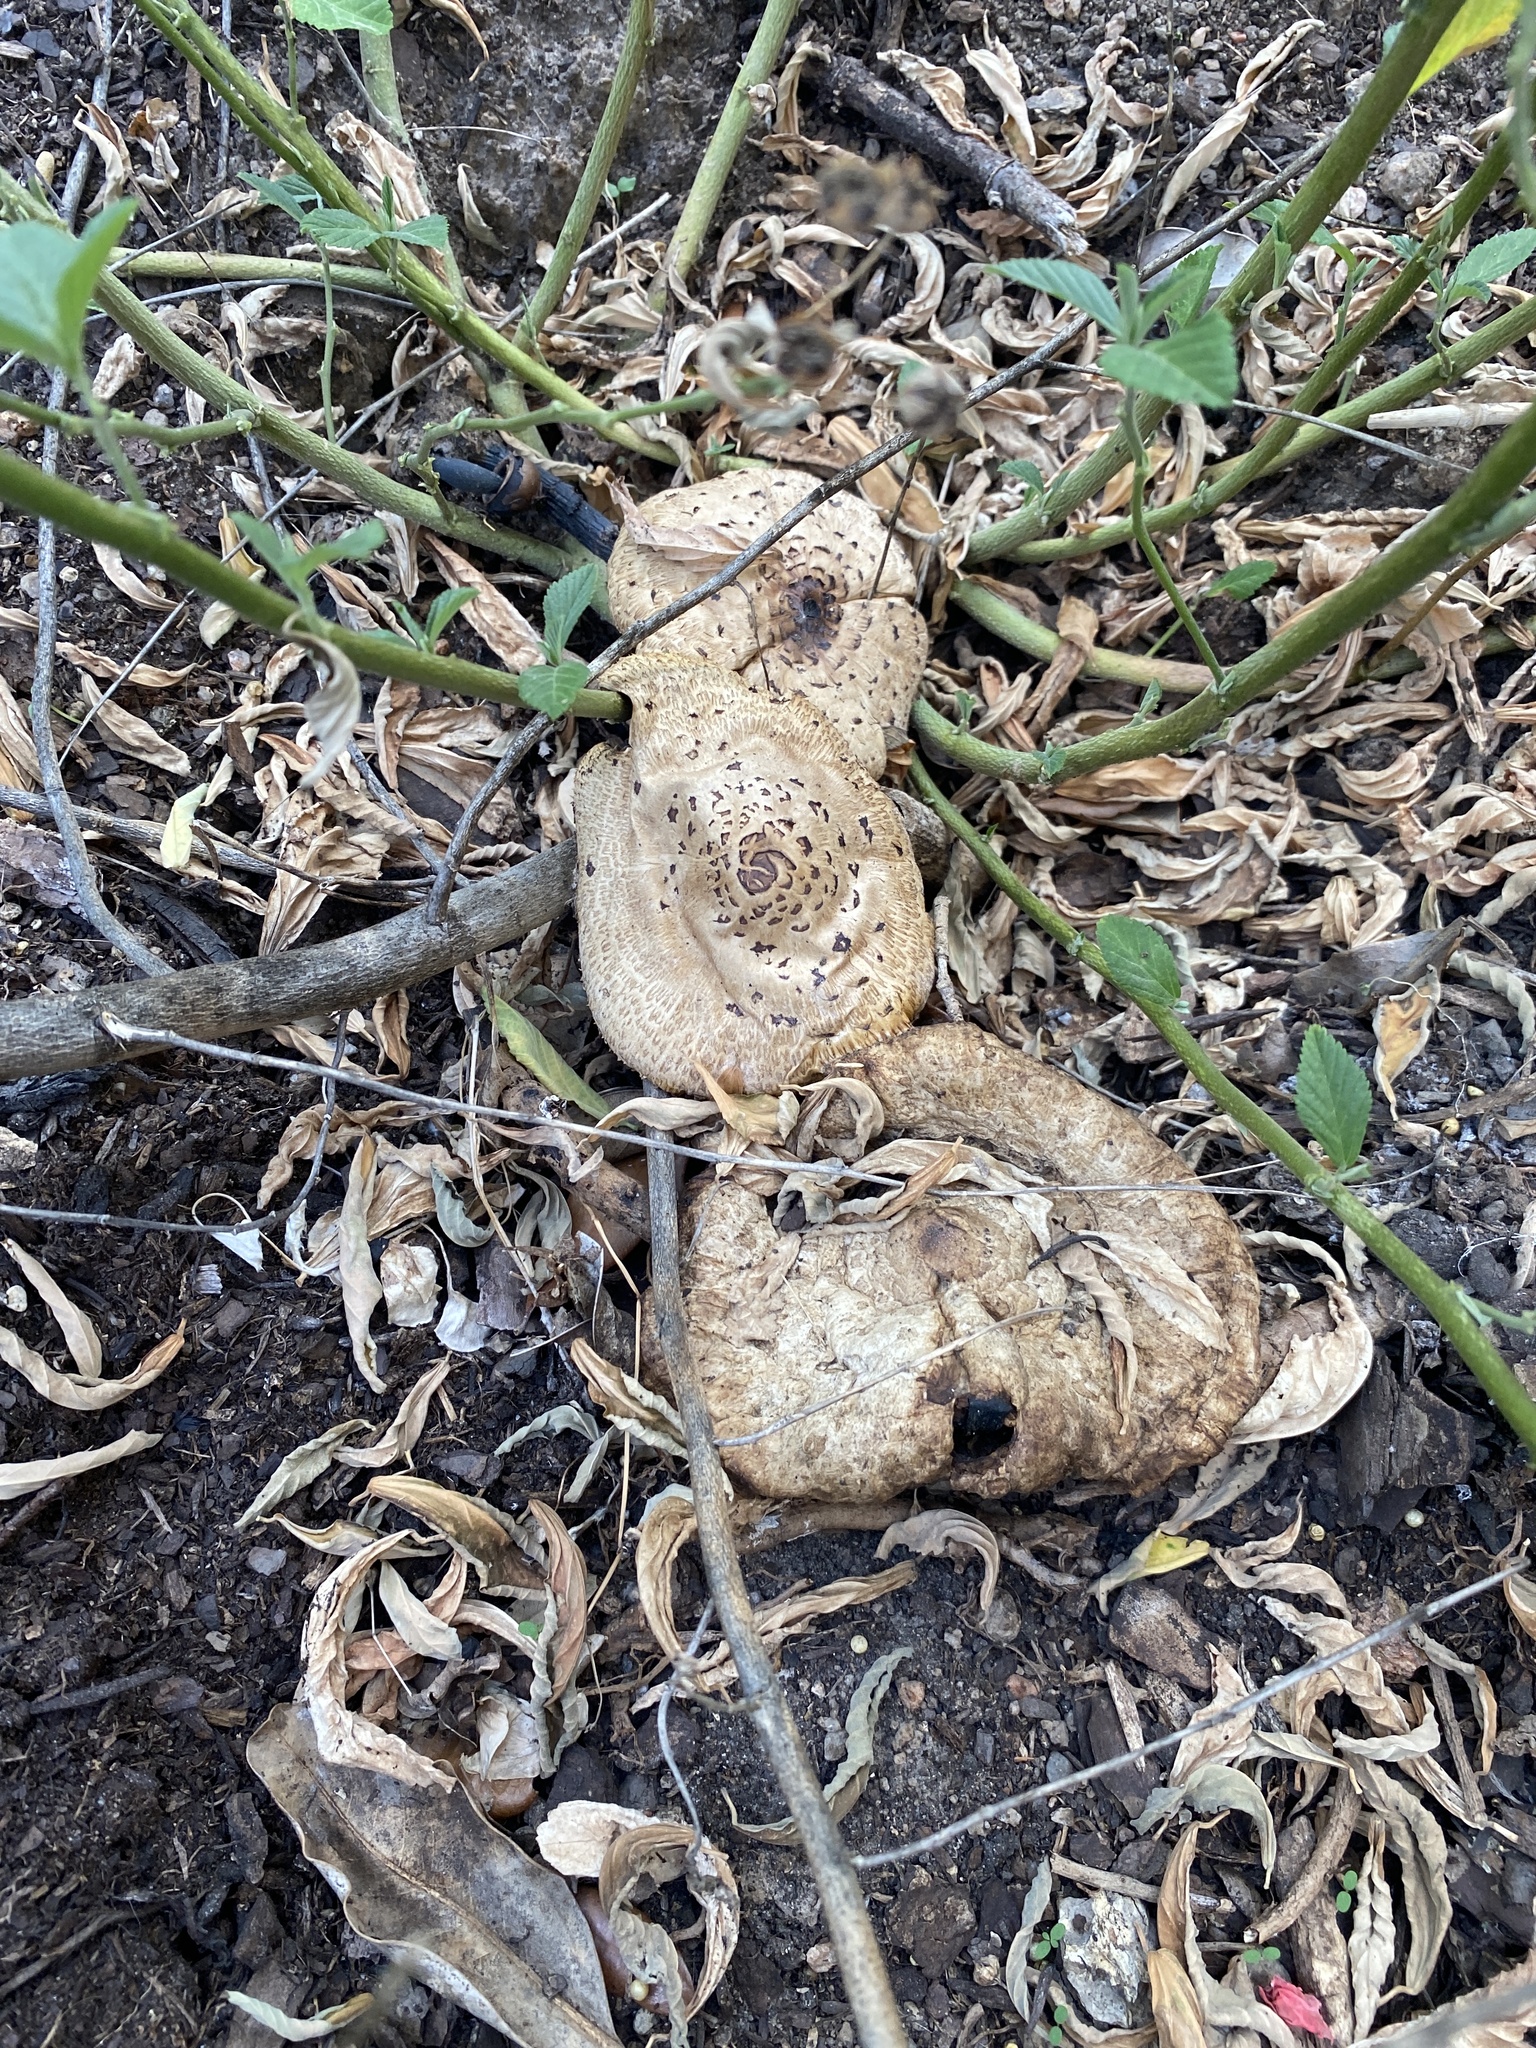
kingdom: Fungi
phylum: Basidiomycota
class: Agaricomycetes
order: Agaricales
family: Agaricaceae
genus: Chlorophyllum
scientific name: Chlorophyllum molybdites
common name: False parasol
